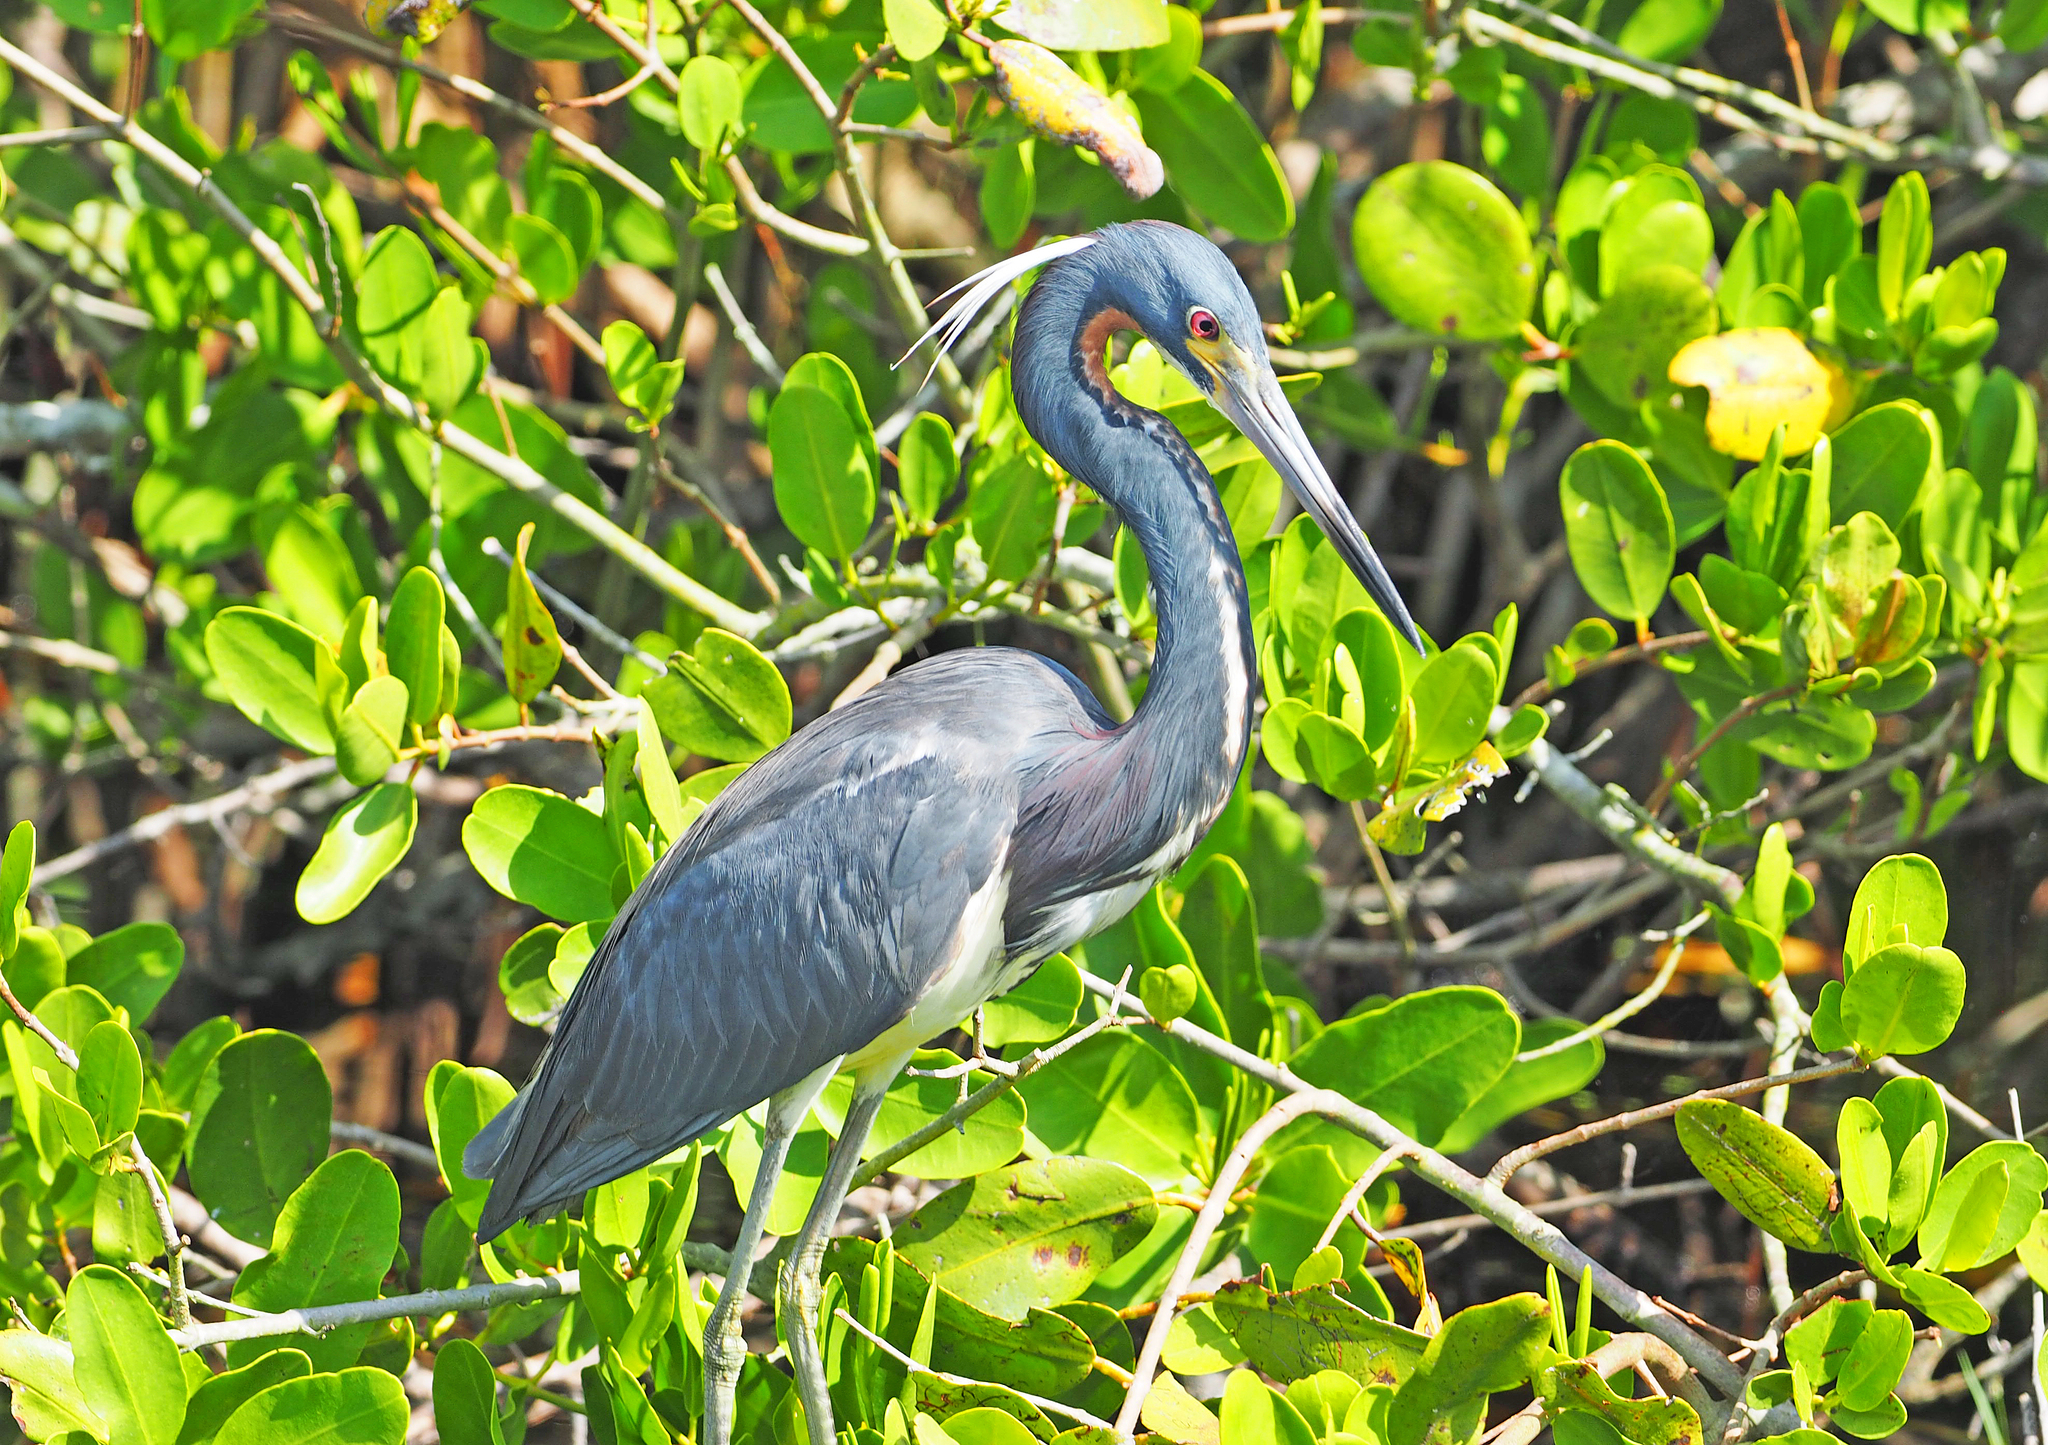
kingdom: Animalia
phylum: Chordata
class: Aves
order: Pelecaniformes
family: Ardeidae
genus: Egretta
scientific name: Egretta tricolor
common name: Tricolored heron
